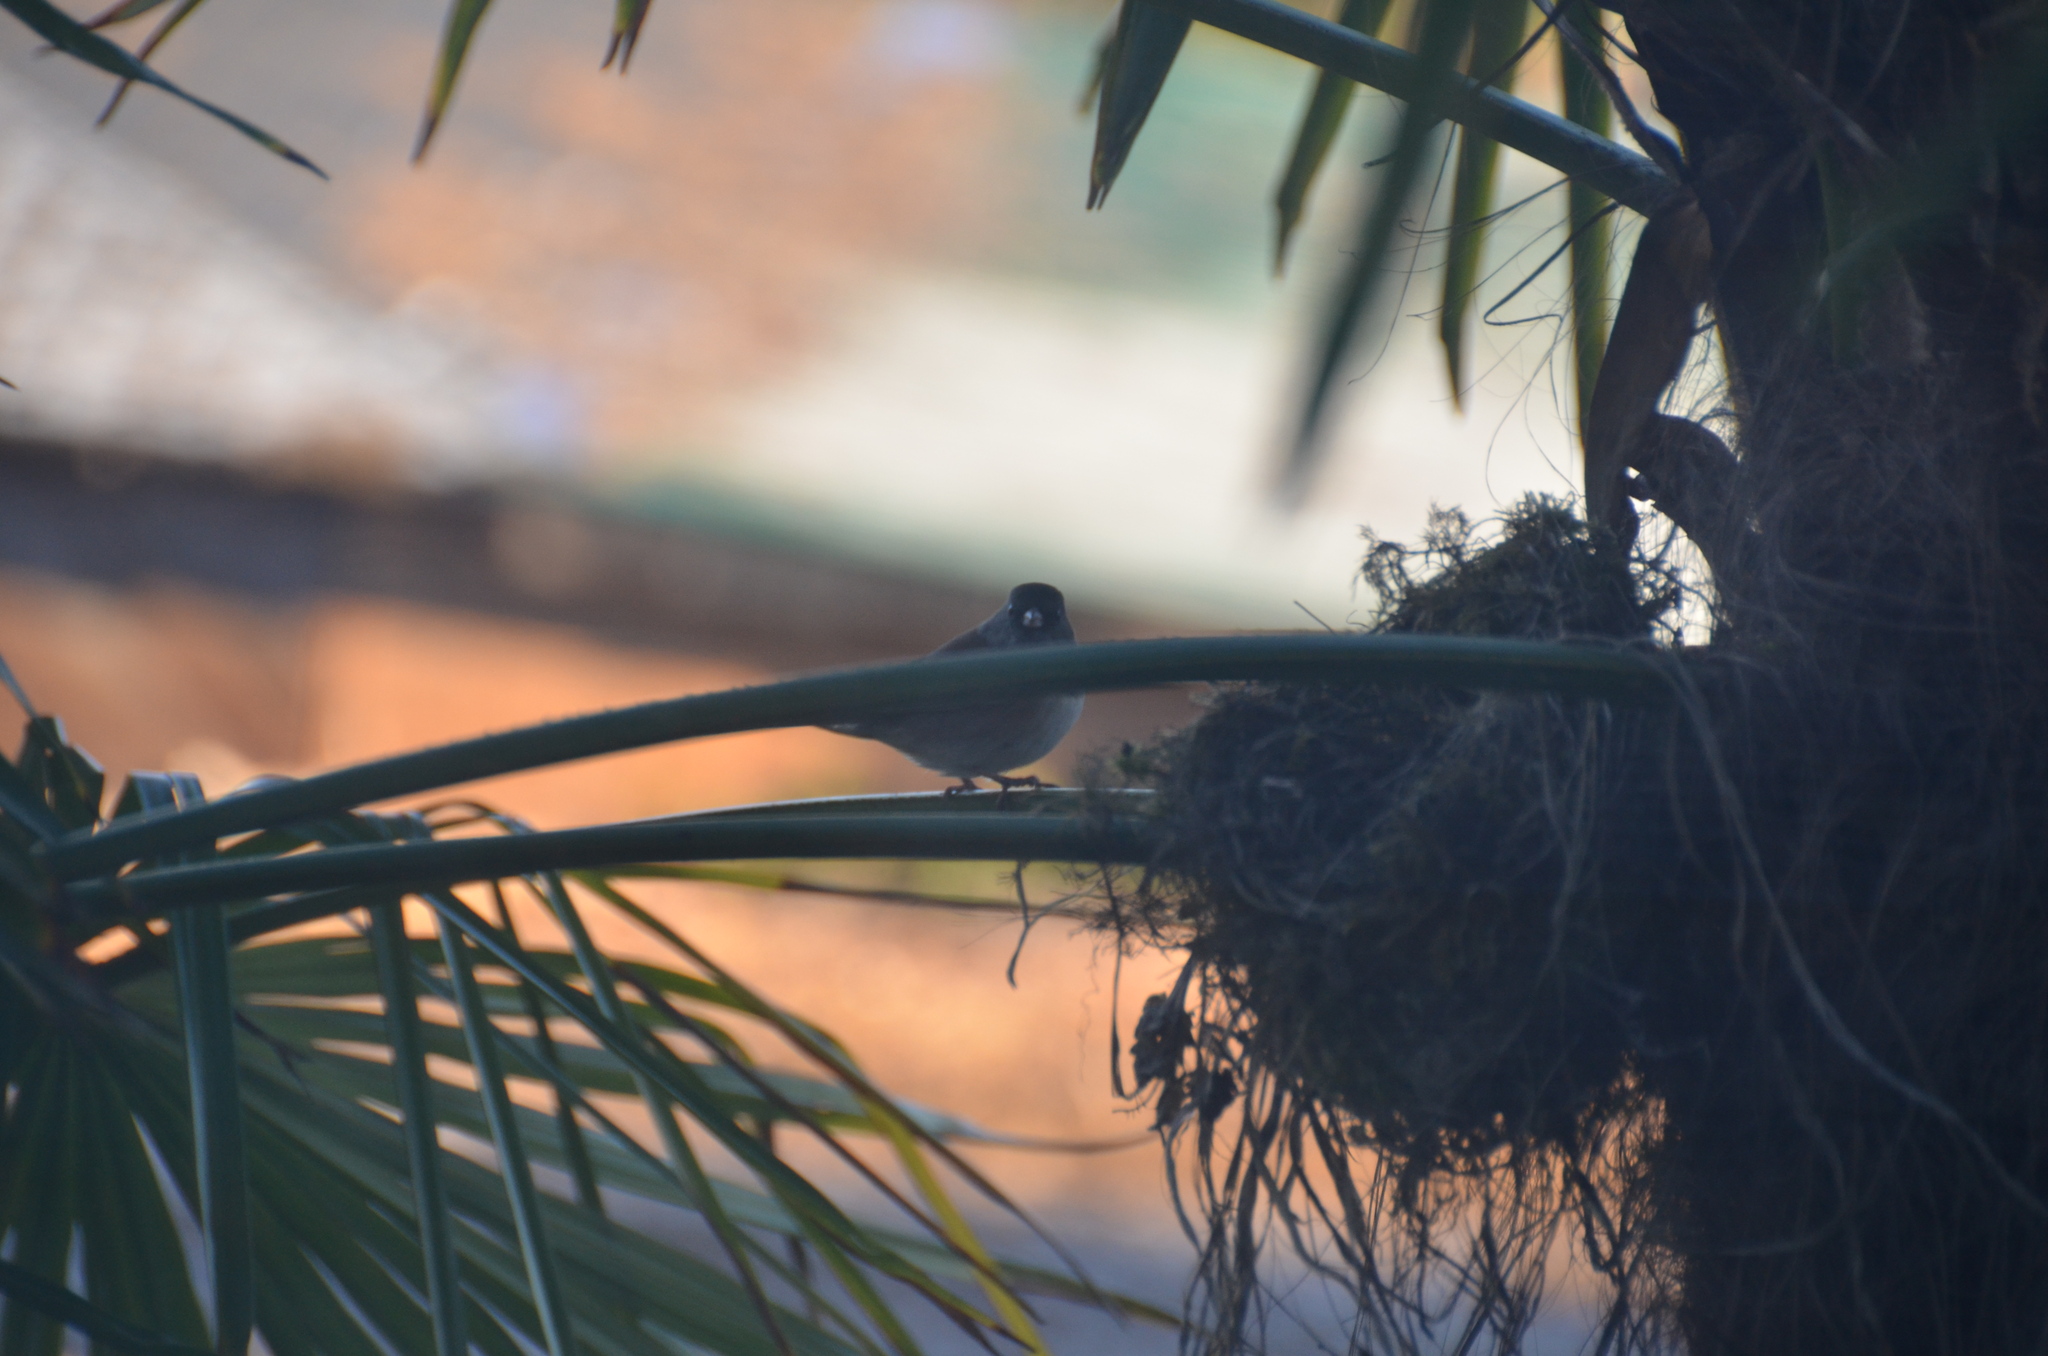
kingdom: Animalia
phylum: Chordata
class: Aves
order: Passeriformes
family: Passerellidae
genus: Junco
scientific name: Junco hyemalis
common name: Dark-eyed junco
